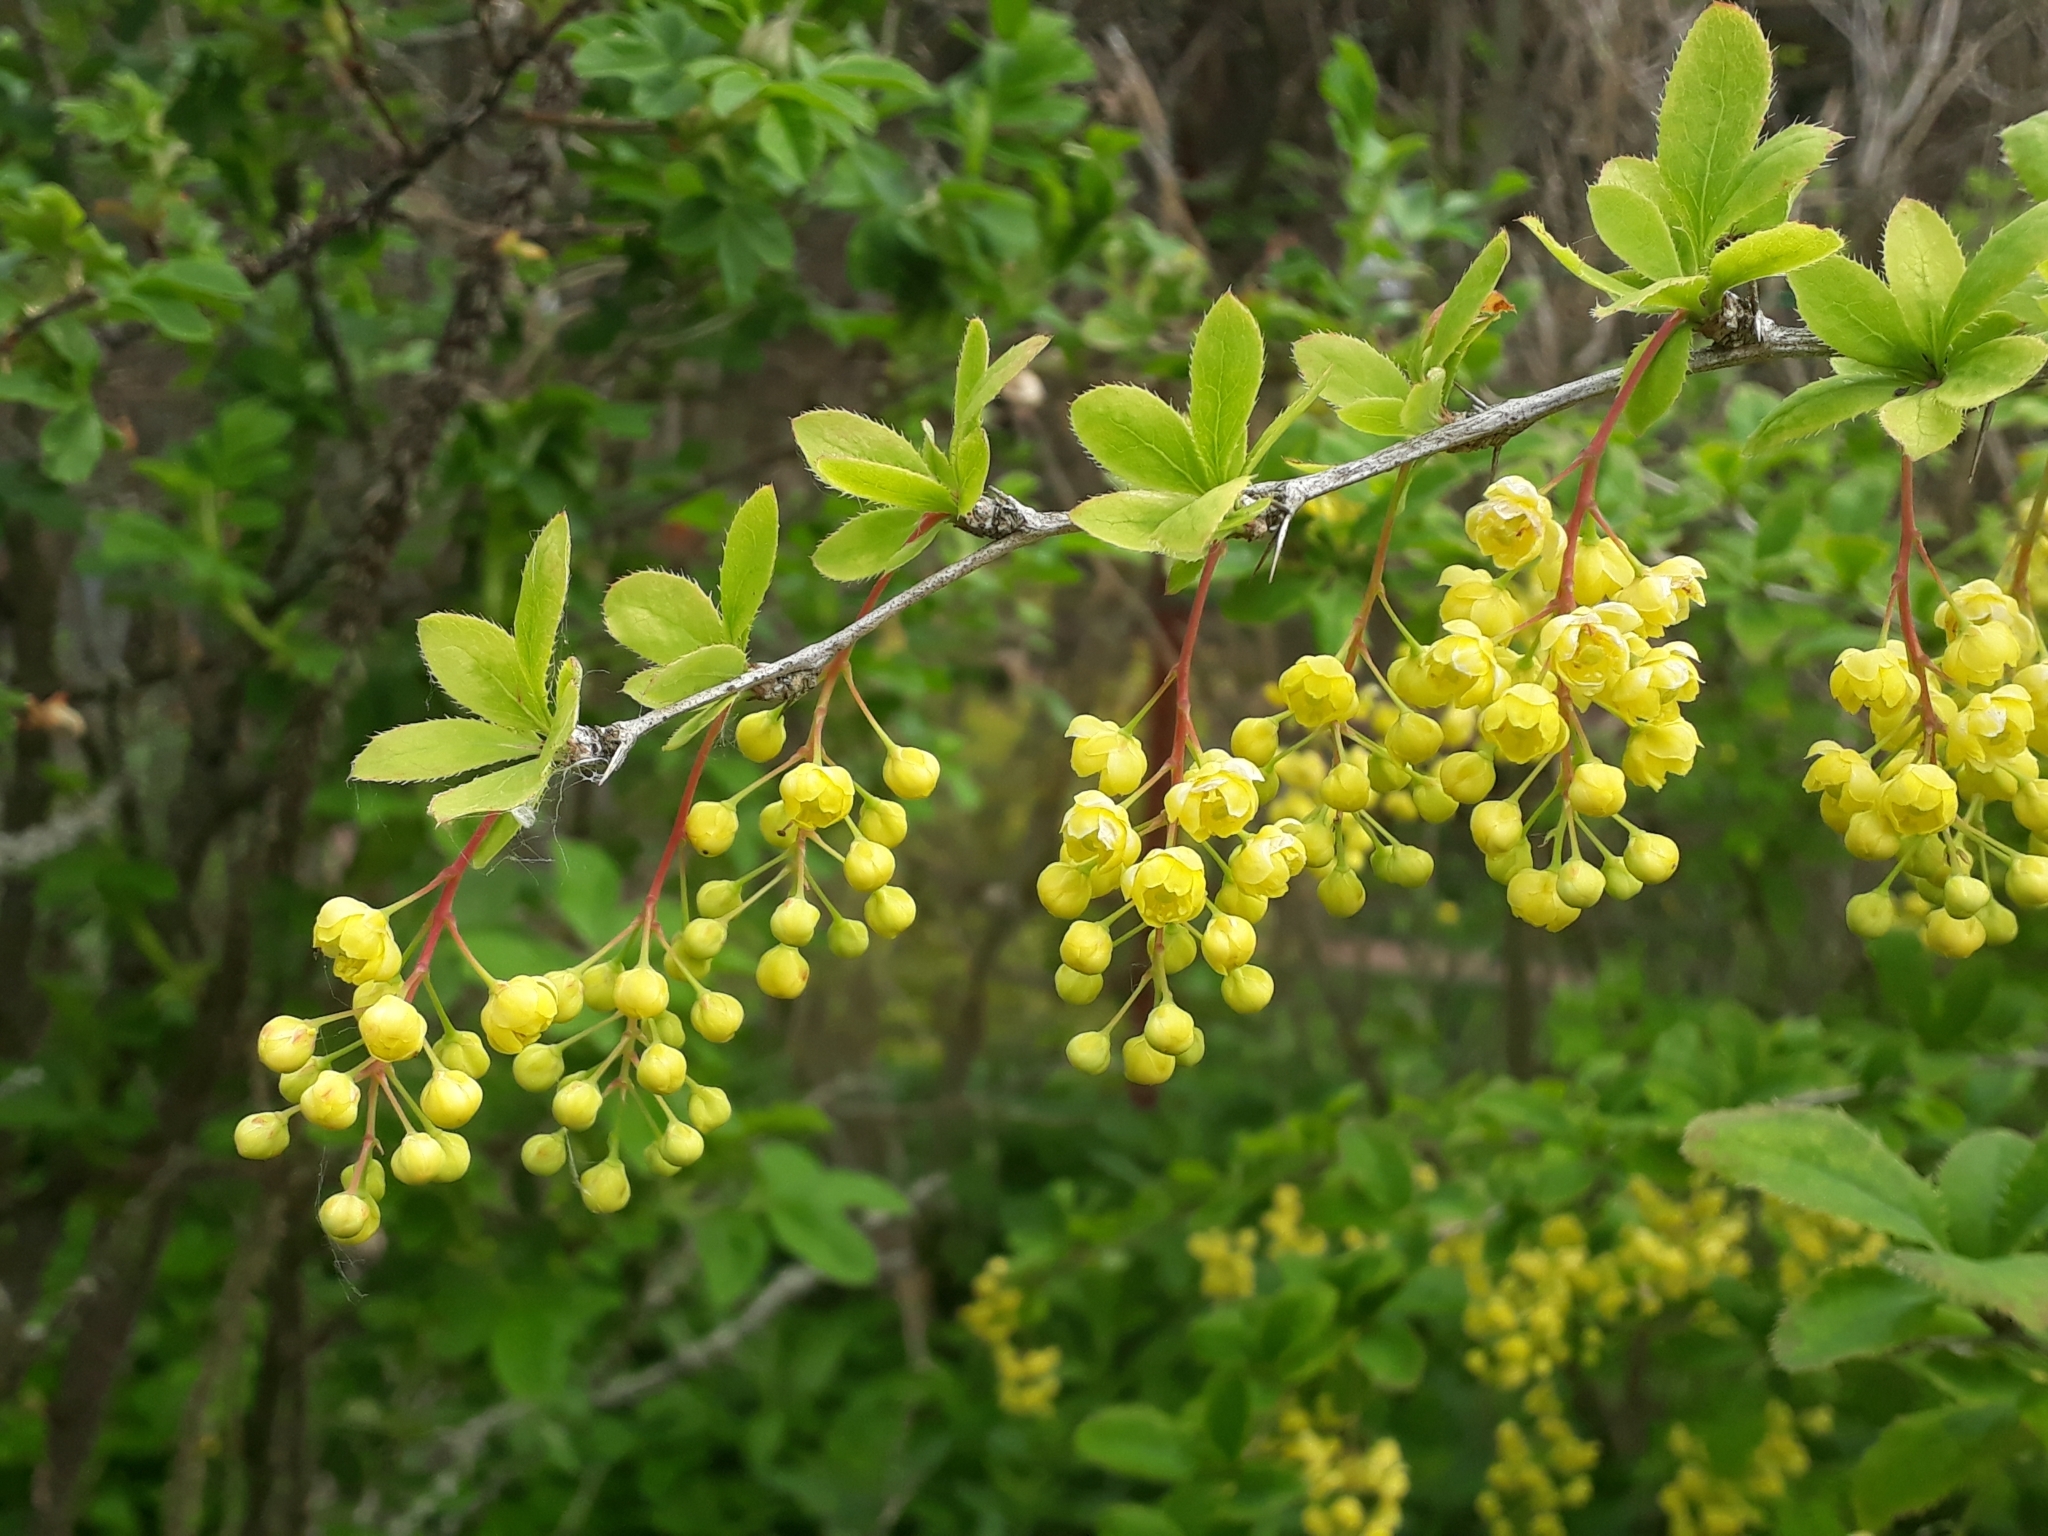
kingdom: Plantae
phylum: Tracheophyta
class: Magnoliopsida
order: Ranunculales
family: Berberidaceae
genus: Berberis
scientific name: Berberis vulgaris
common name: Barberry
